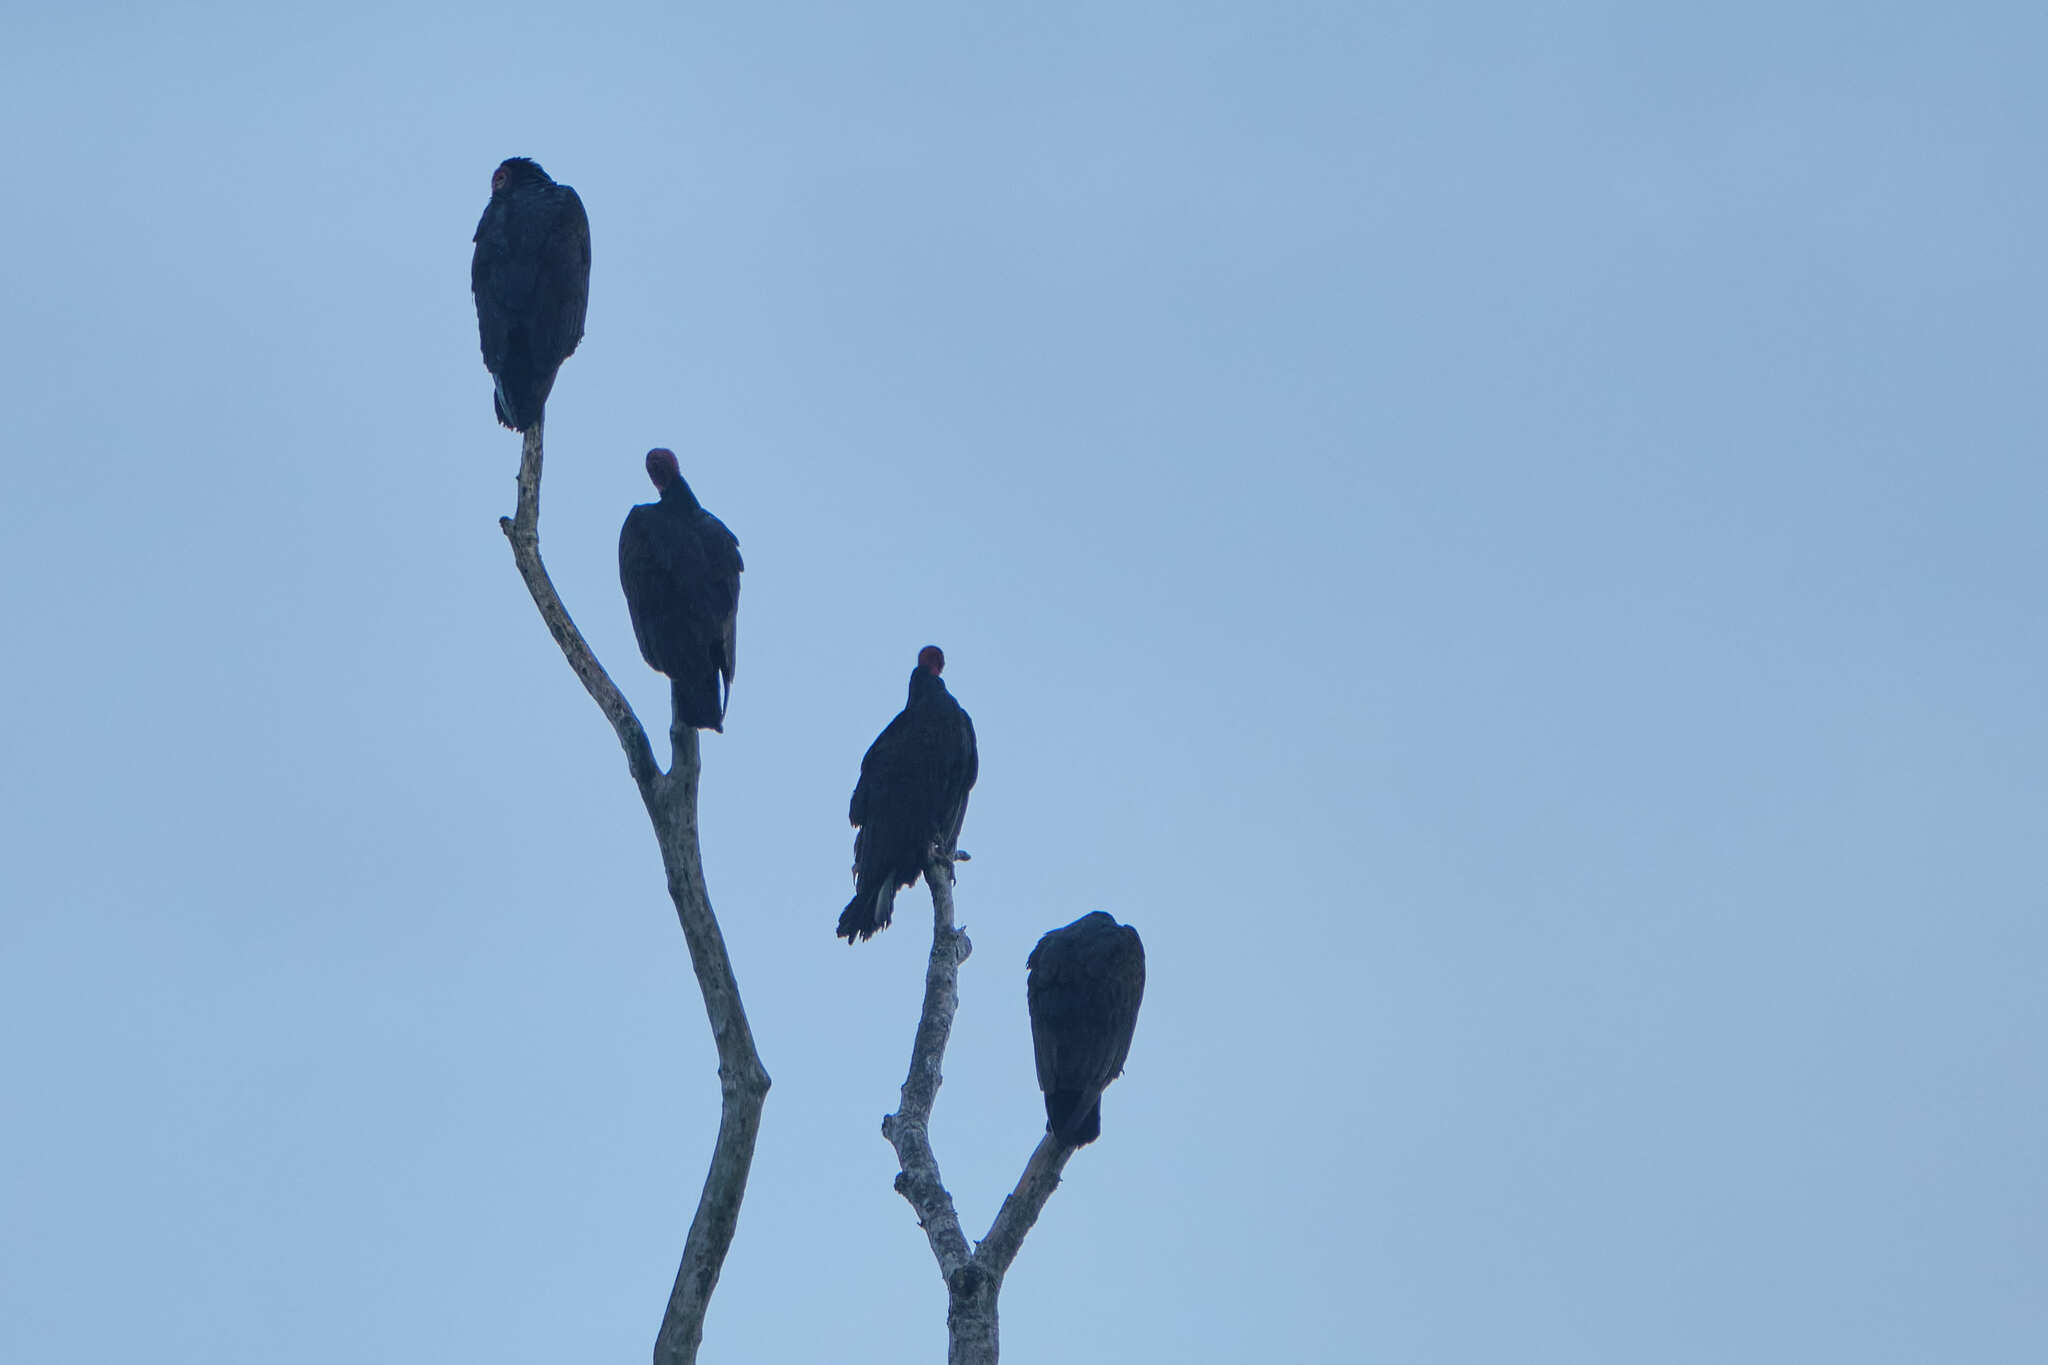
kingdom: Animalia
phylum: Chordata
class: Aves
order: Accipitriformes
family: Cathartidae
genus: Cathartes
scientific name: Cathartes aura
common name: Turkey vulture
